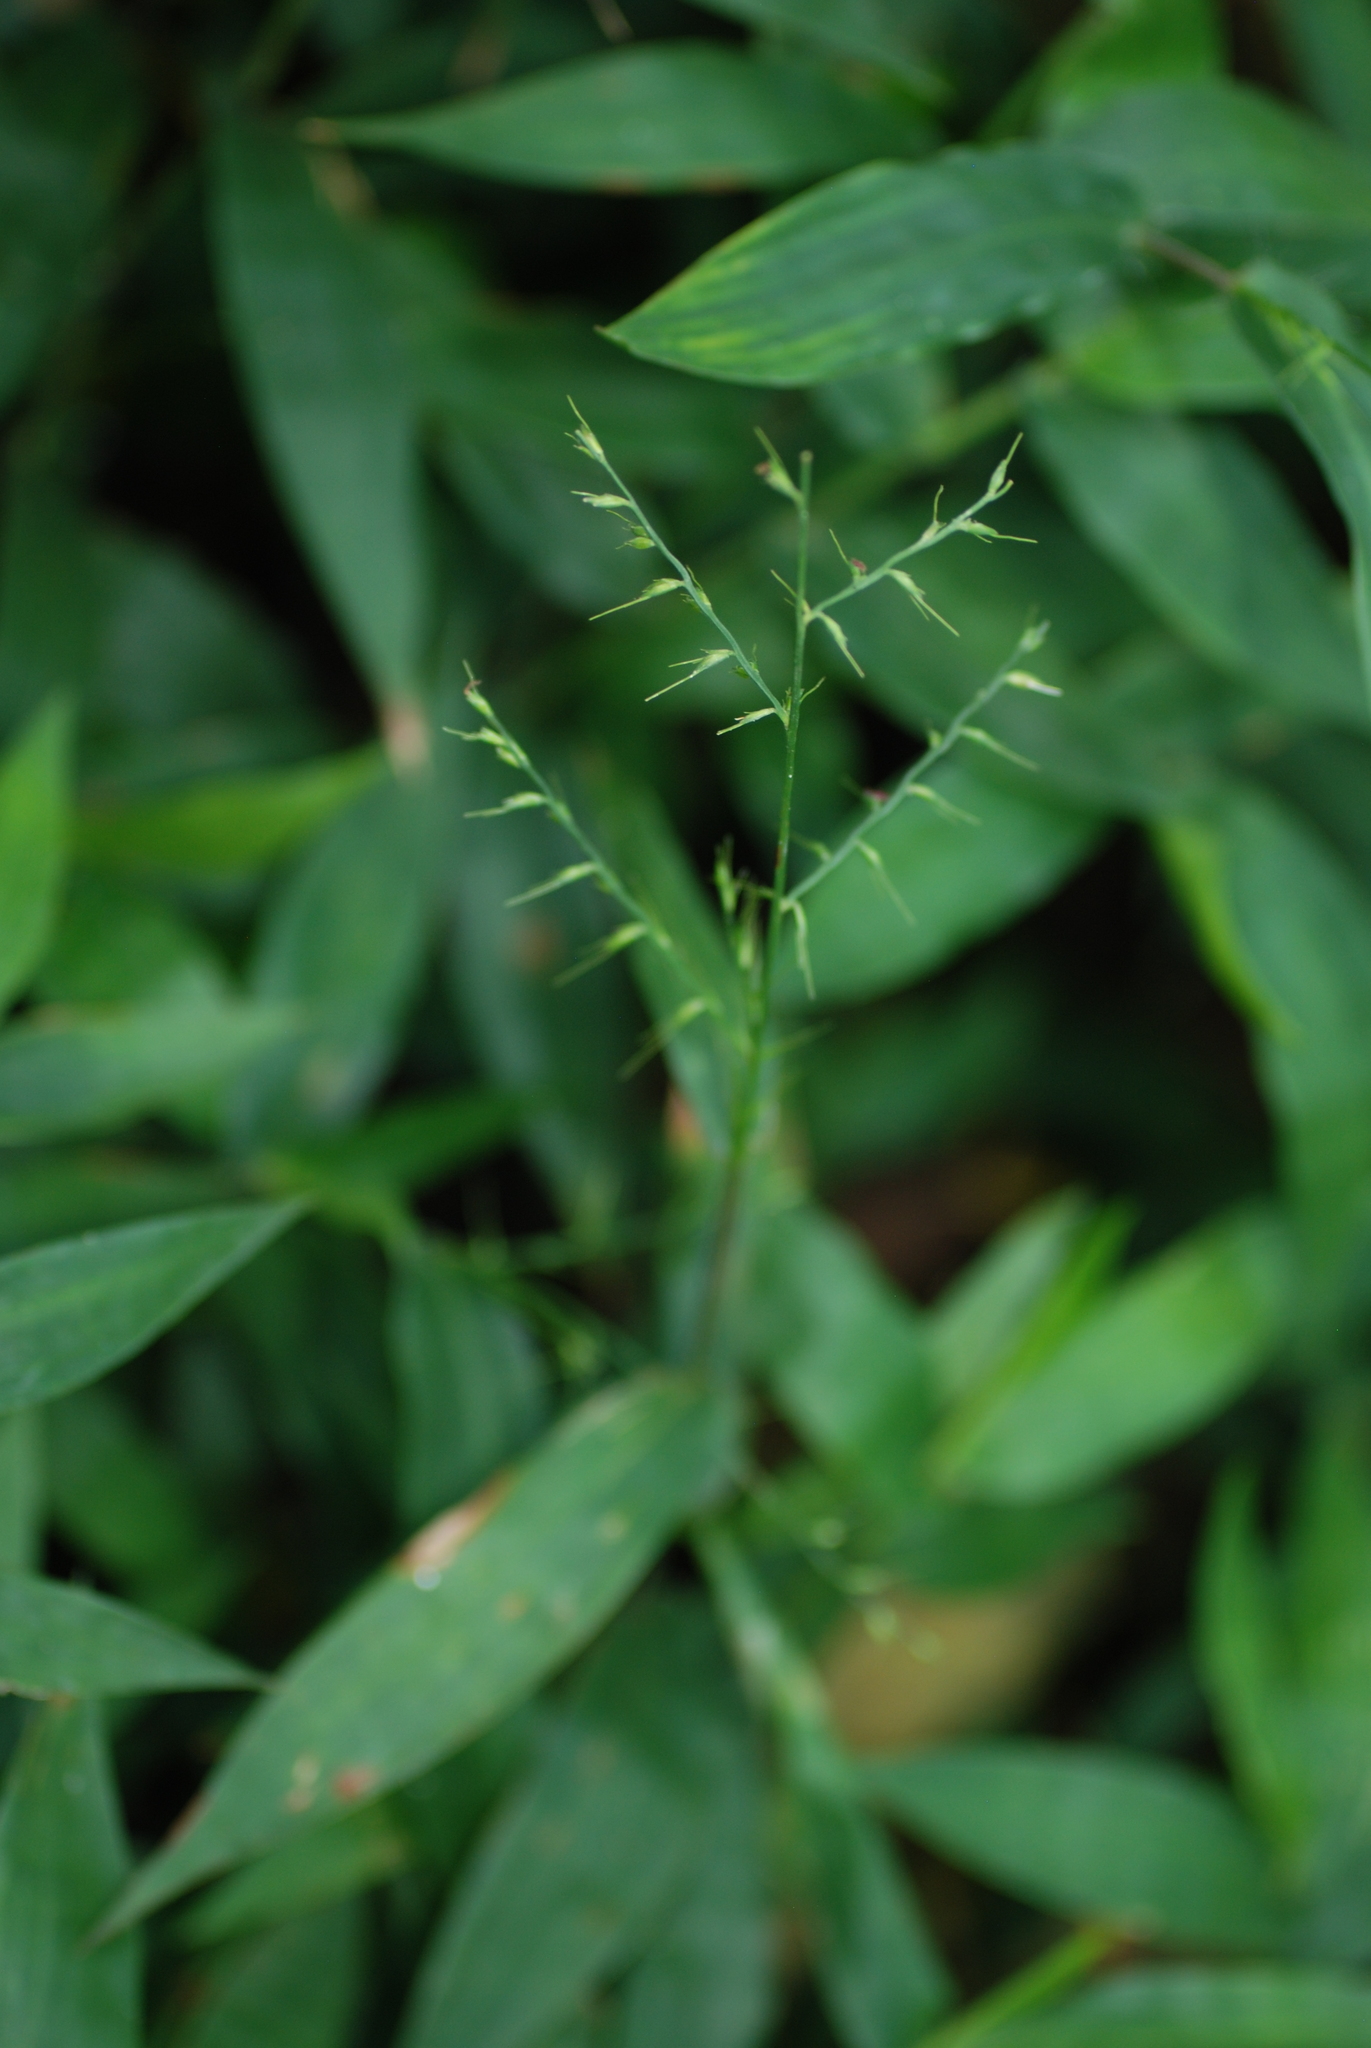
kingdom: Plantae
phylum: Tracheophyta
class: Liliopsida
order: Poales
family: Poaceae
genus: Oplismenus
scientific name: Oplismenus compositus
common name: Running mountain grass
